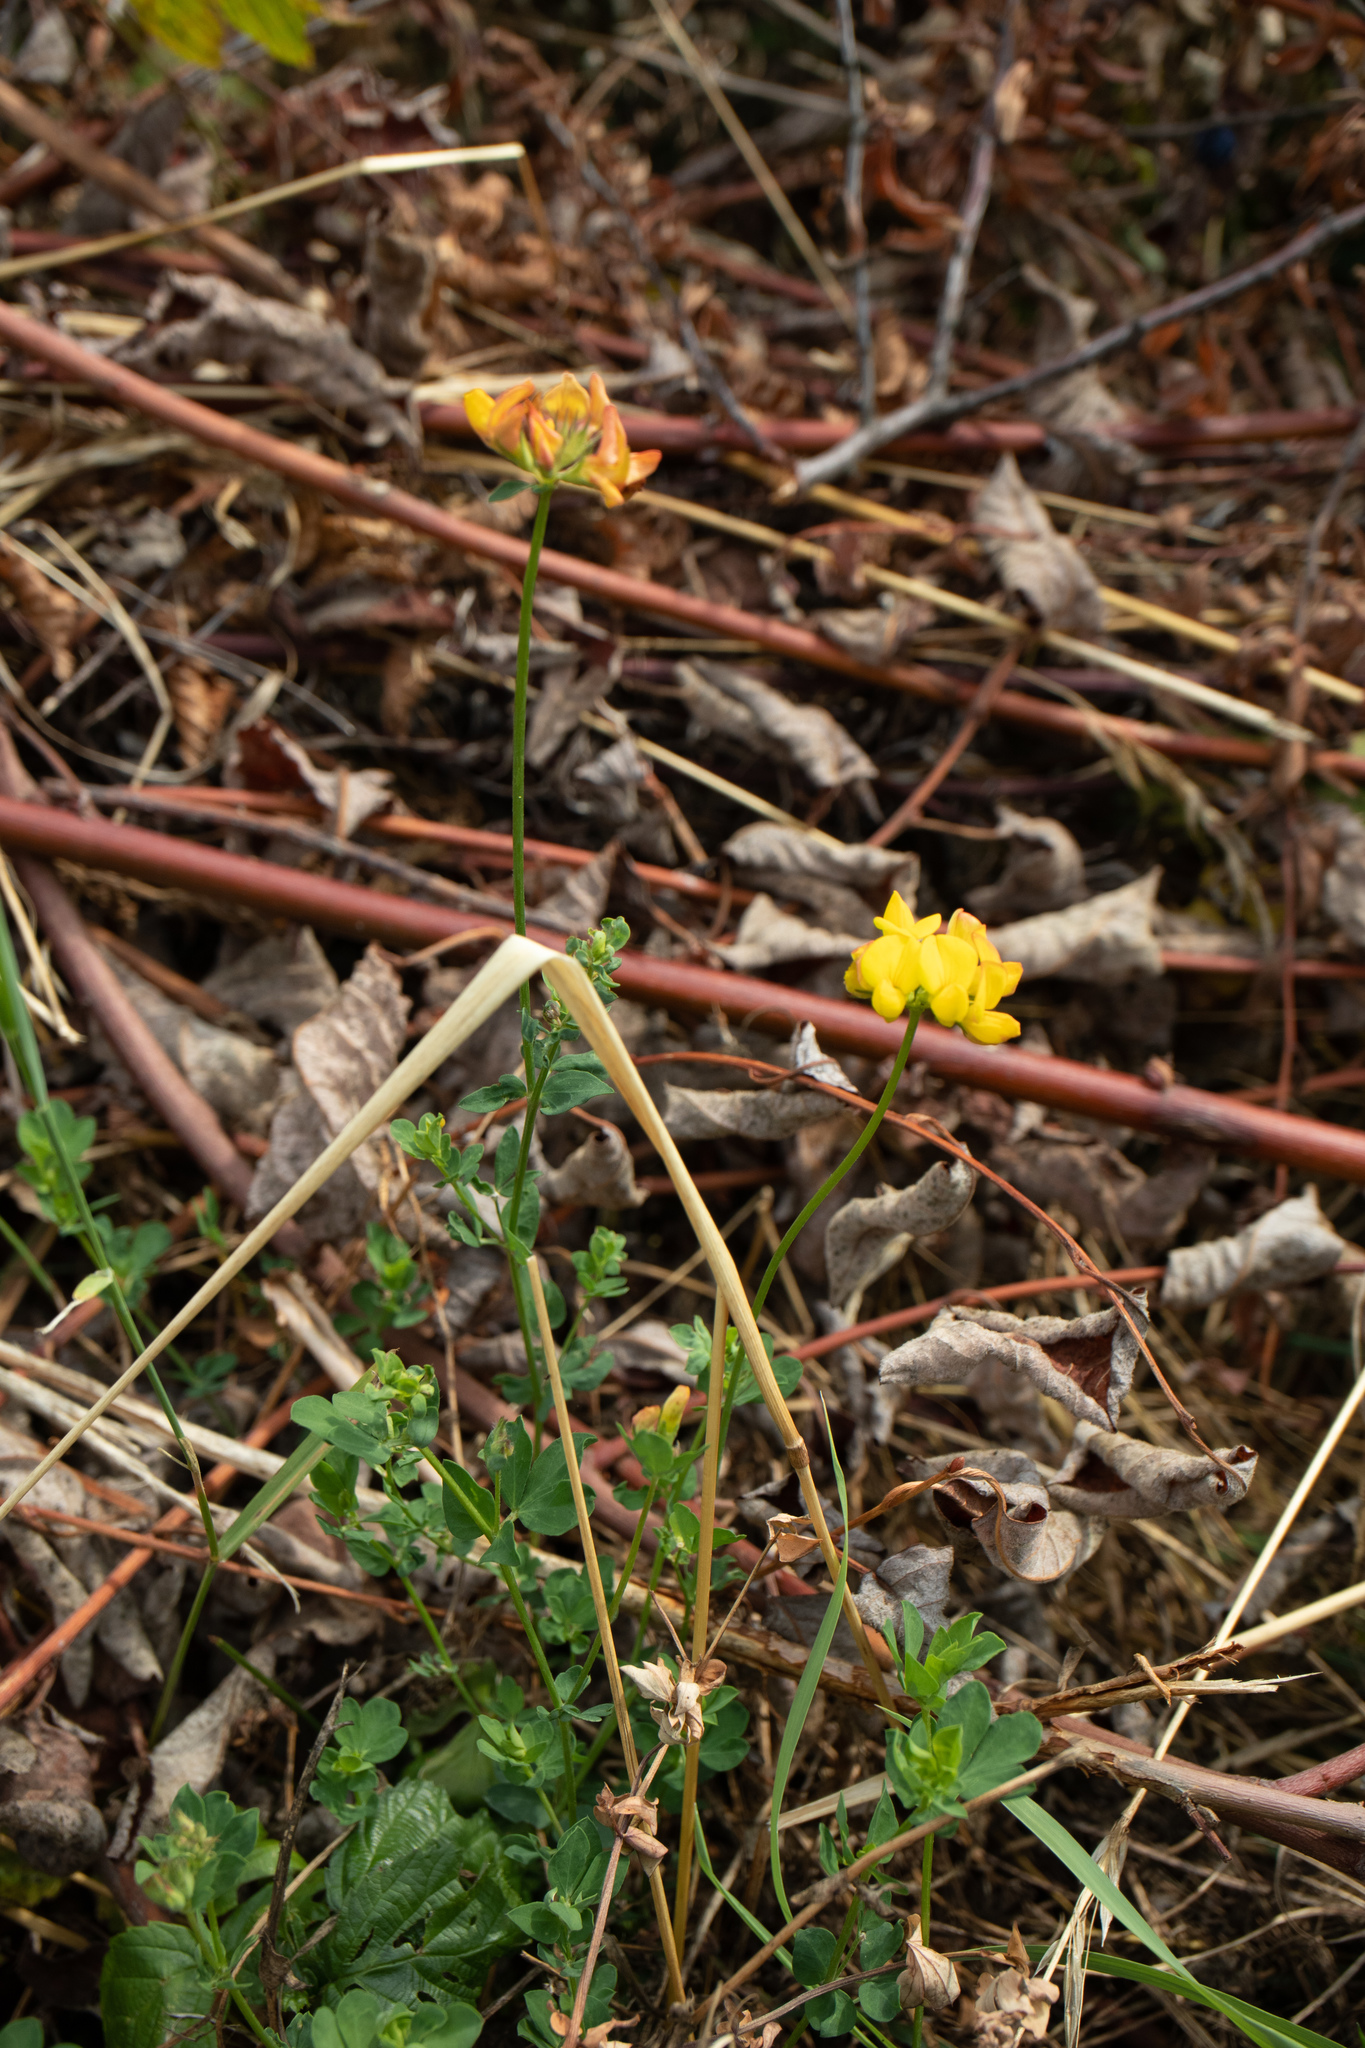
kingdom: Plantae
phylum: Tracheophyta
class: Magnoliopsida
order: Fabales
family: Fabaceae
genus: Lotus
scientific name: Lotus corniculatus
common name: Common bird's-foot-trefoil
